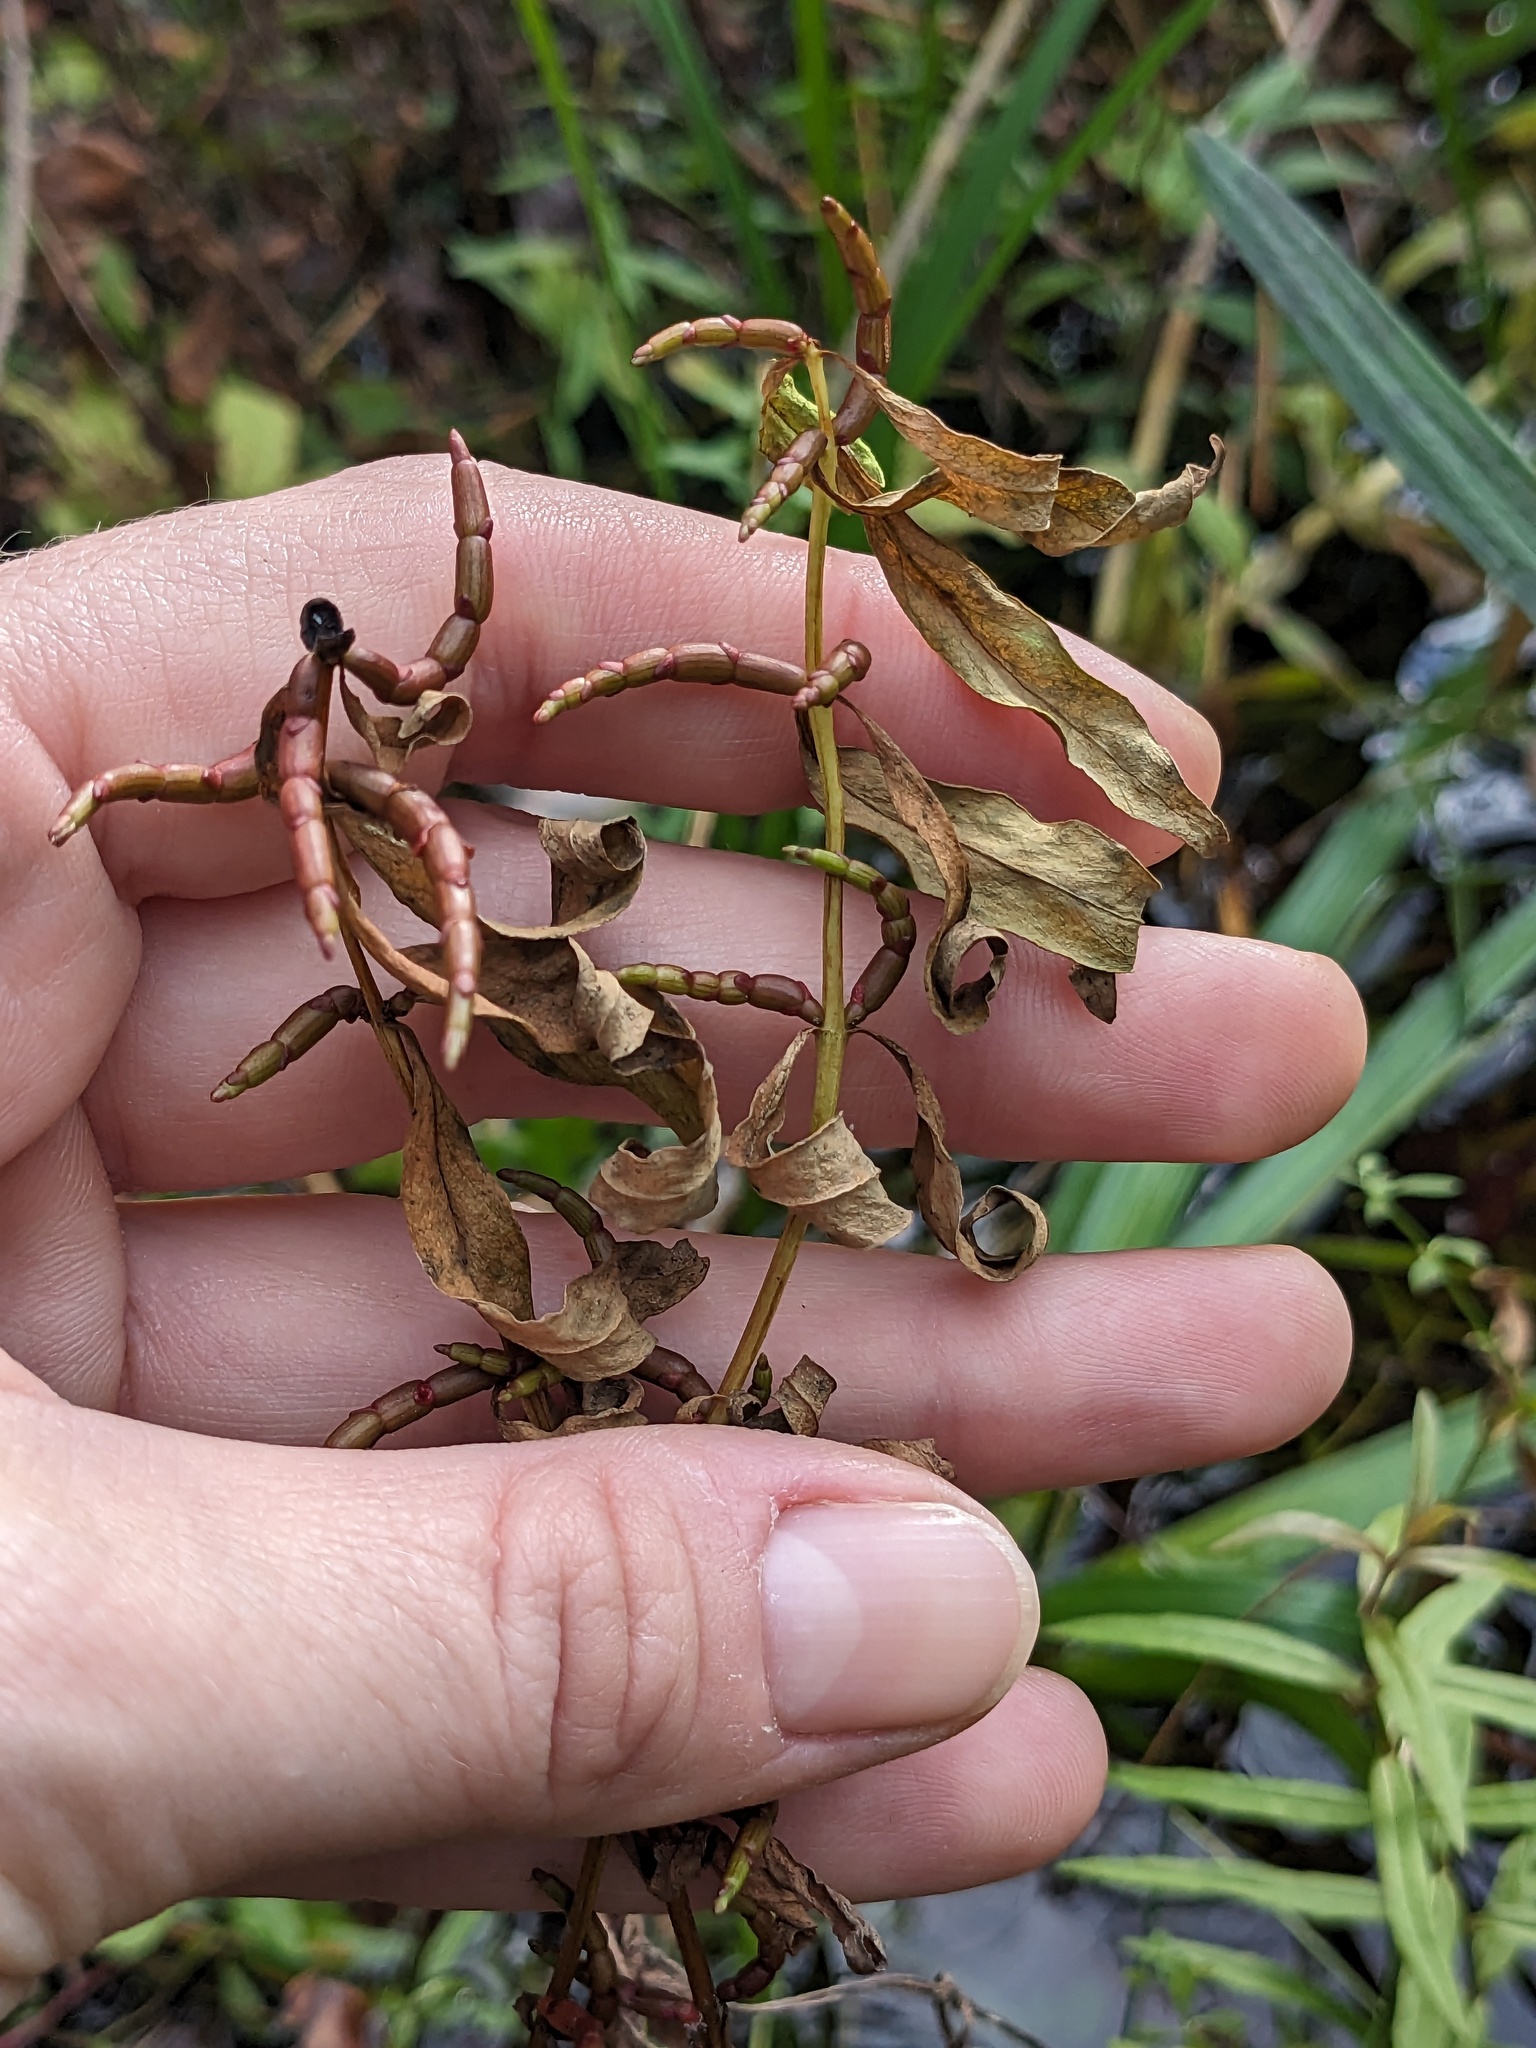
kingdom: Plantae
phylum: Tracheophyta
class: Magnoliopsida
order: Ericales
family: Primulaceae
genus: Lysimachia
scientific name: Lysimachia terrestris
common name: Lake loosestrife
